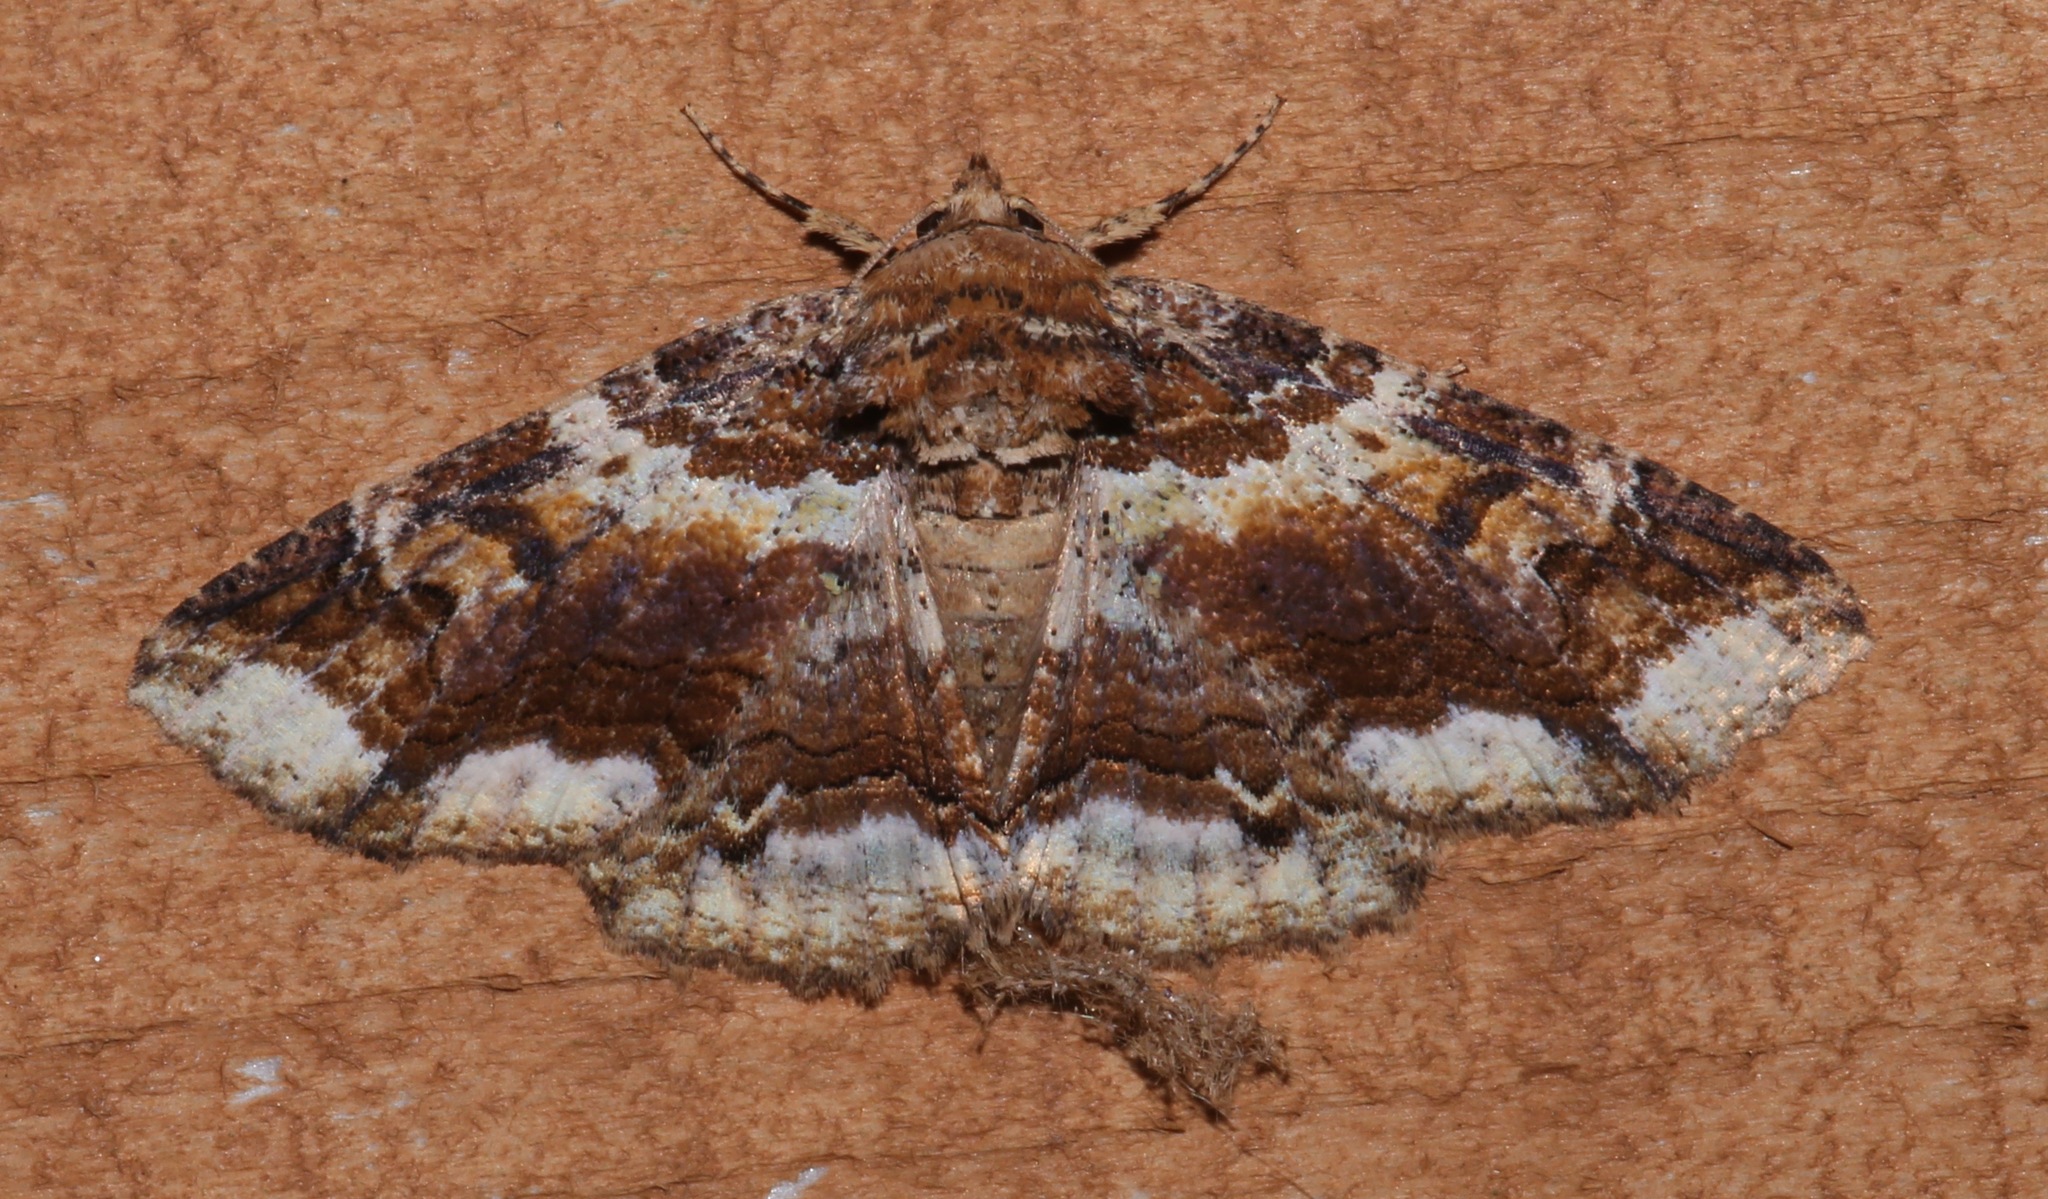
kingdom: Animalia
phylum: Arthropoda
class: Insecta
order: Lepidoptera
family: Erebidae
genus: Zale
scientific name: Zale minerea
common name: Colorful zale moth
